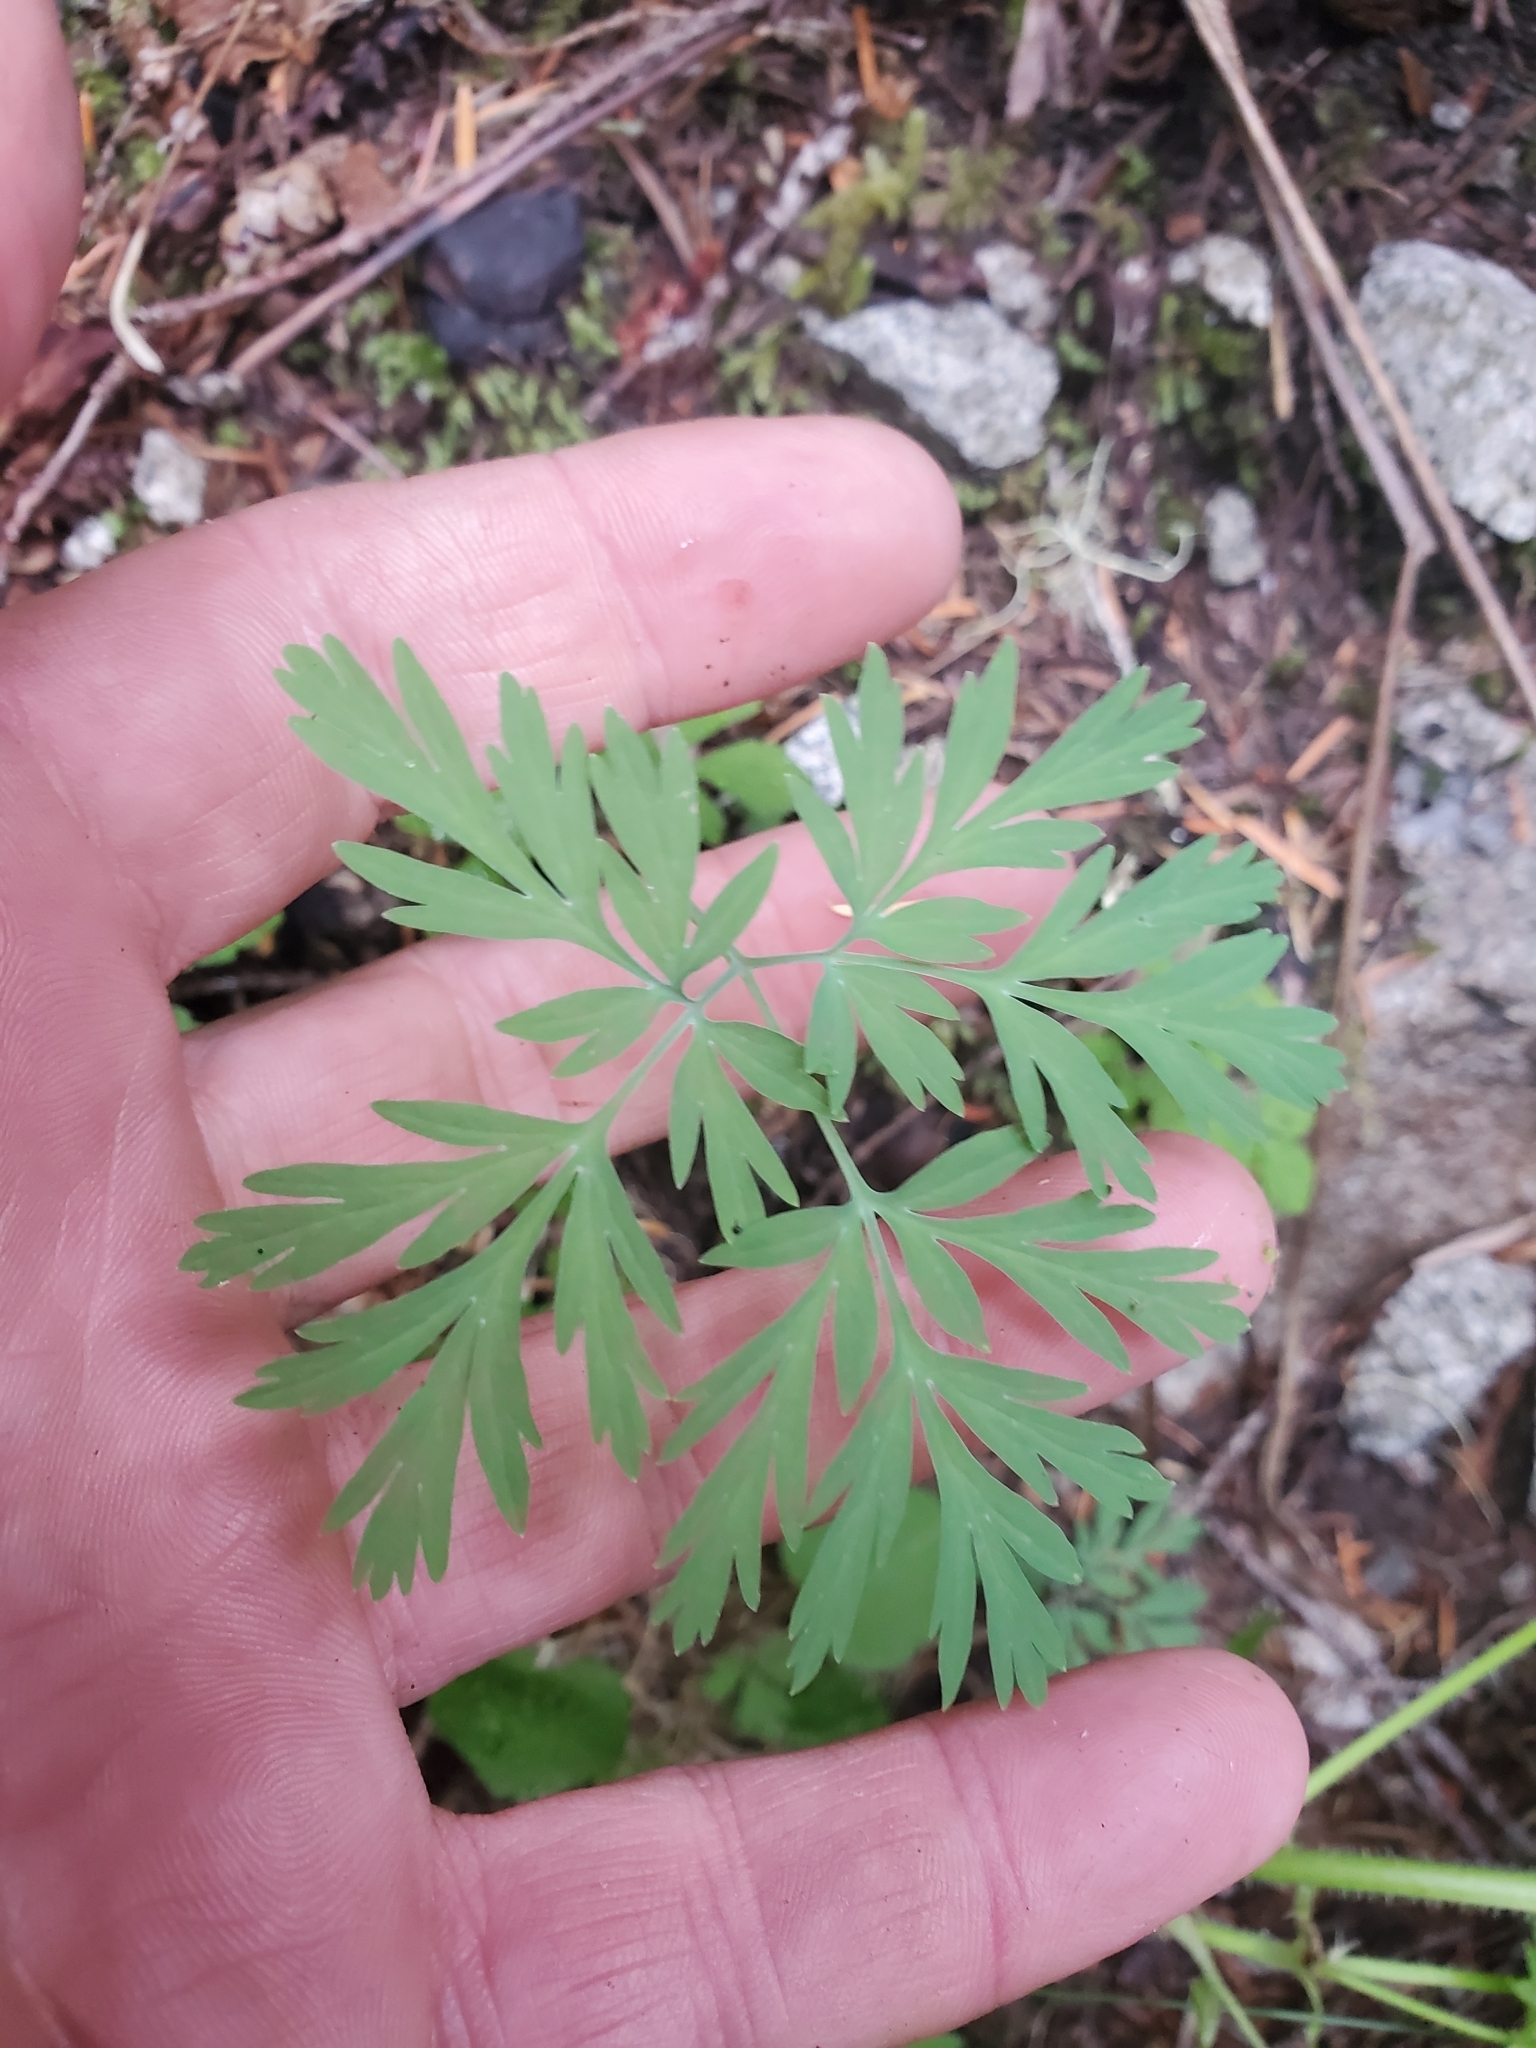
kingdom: Plantae
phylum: Tracheophyta
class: Magnoliopsida
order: Ranunculales
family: Papaveraceae
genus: Dicentra
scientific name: Dicentra formosa
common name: Bleeding-heart
